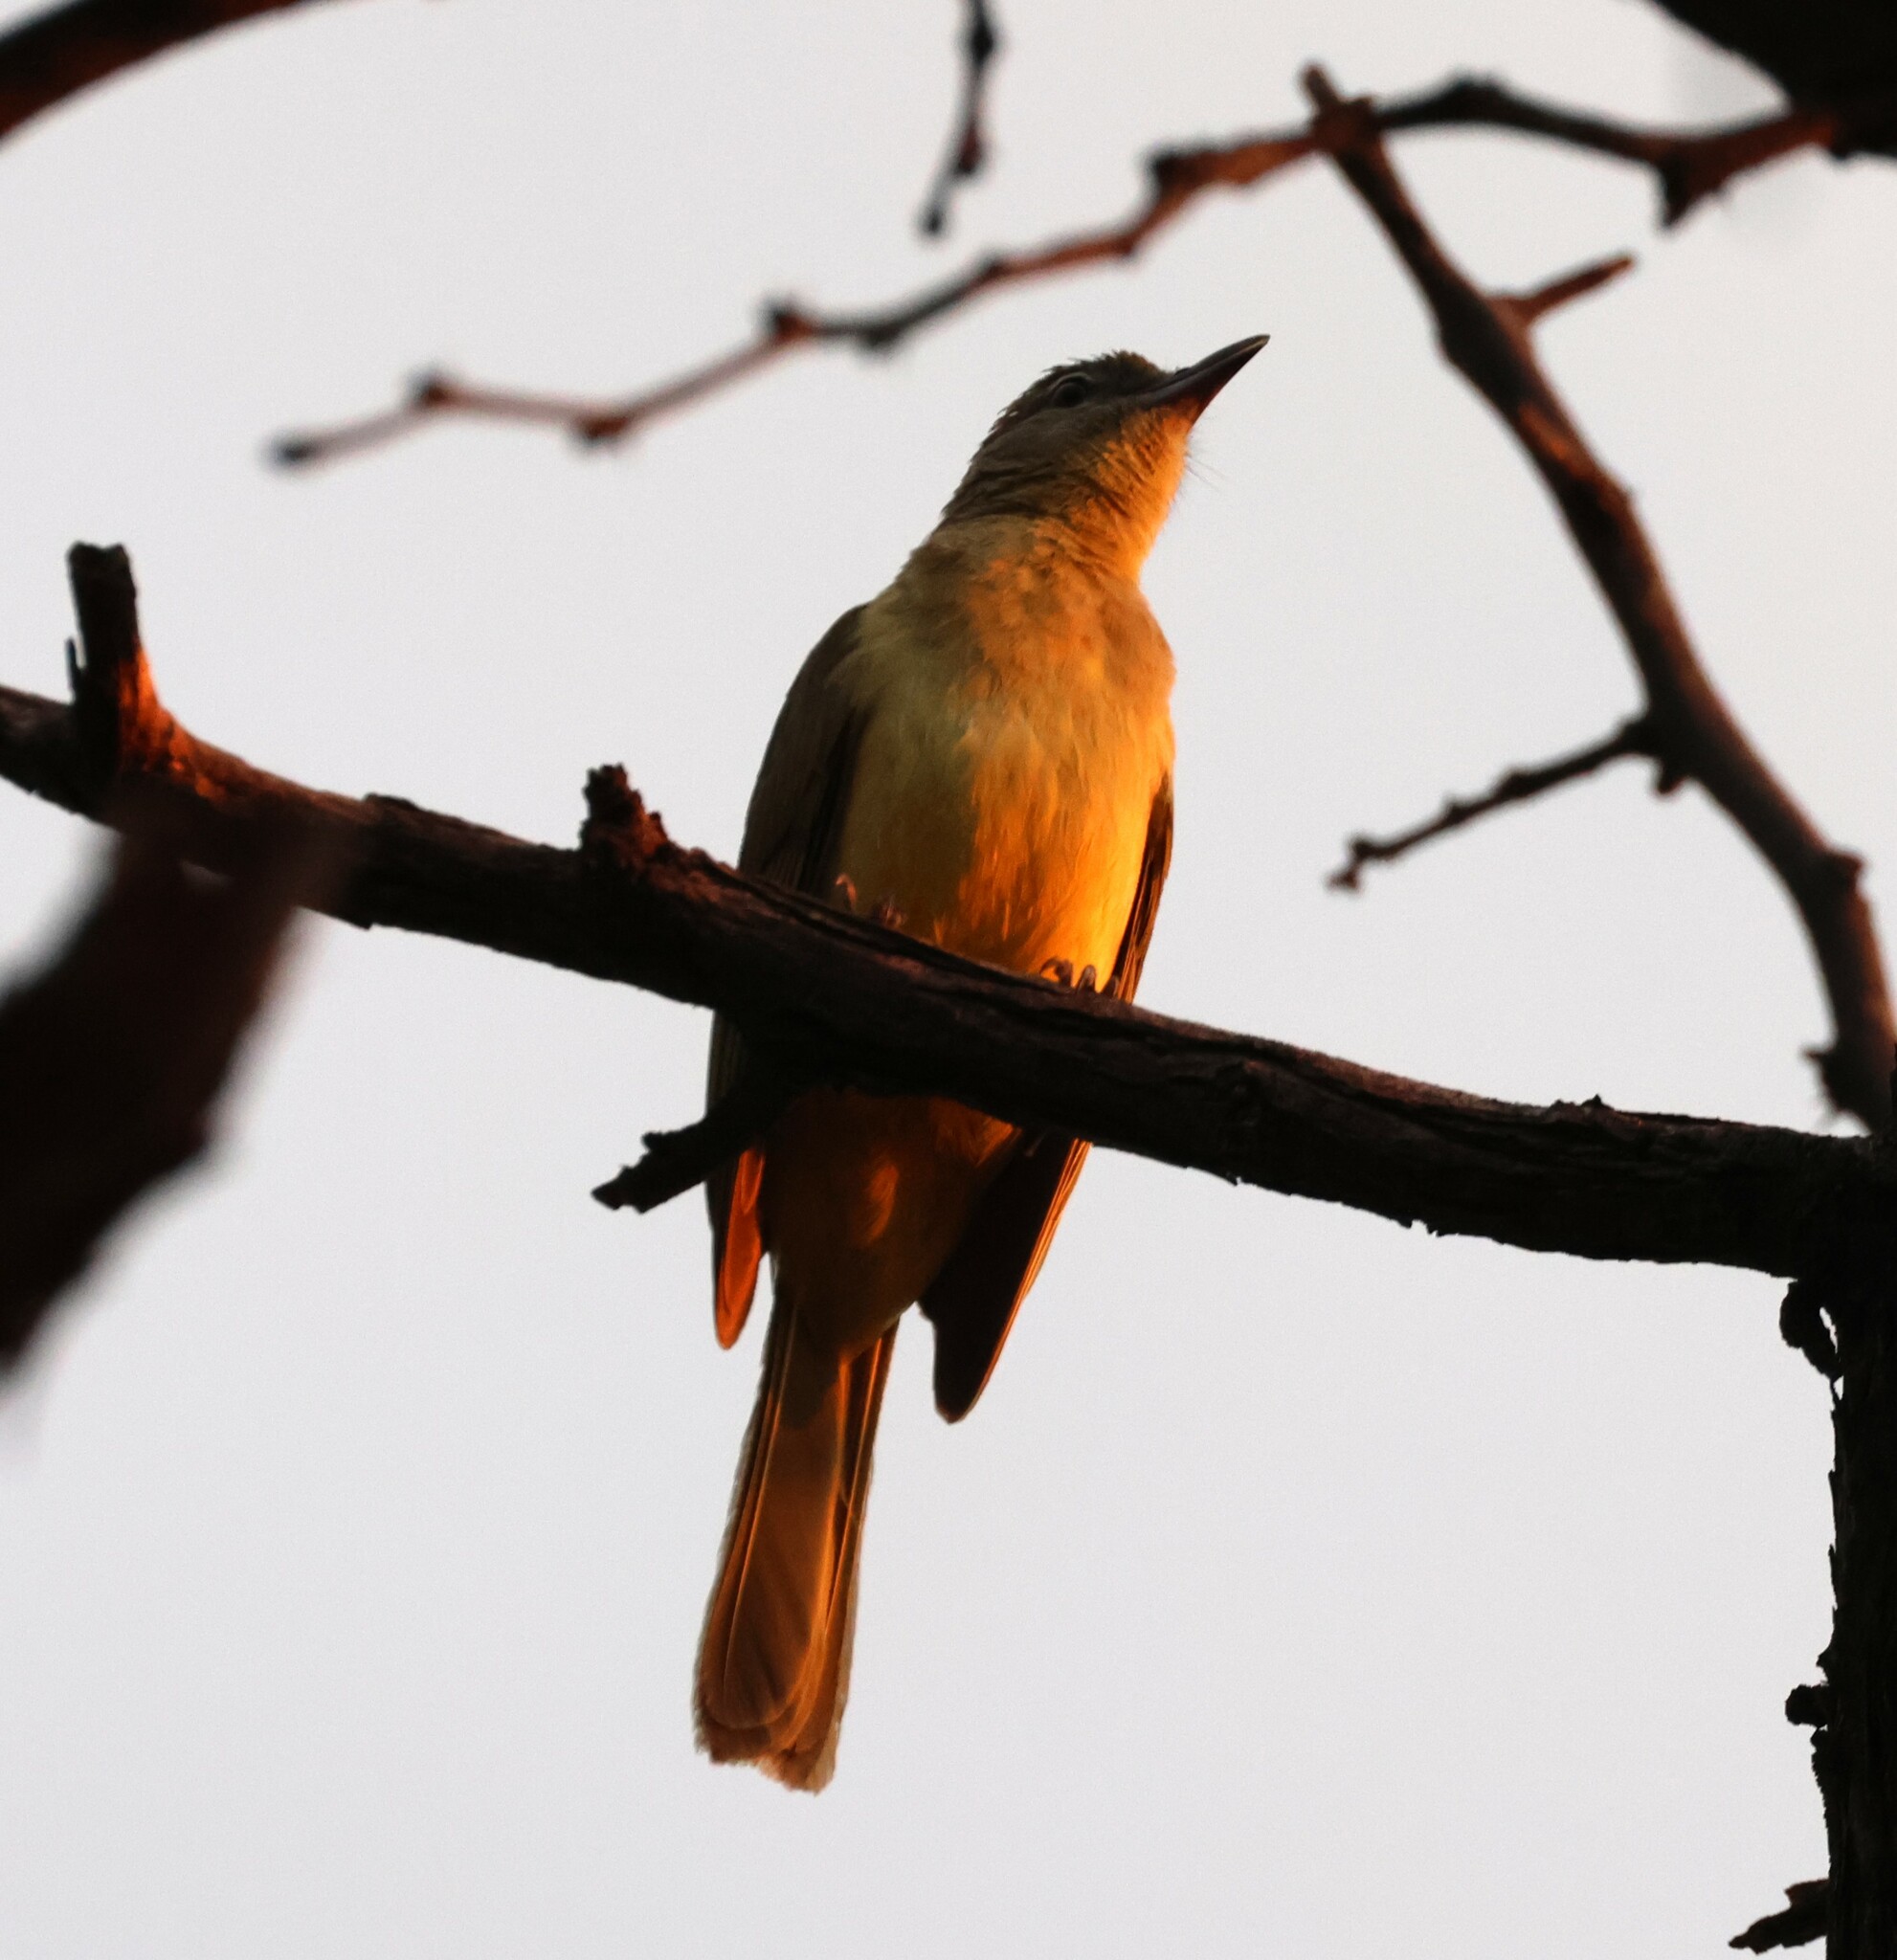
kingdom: Animalia
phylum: Chordata
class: Aves
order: Passeriformes
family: Pycnonotidae
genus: Chlorocichla
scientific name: Chlorocichla flaviventris
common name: Yellow-bellied greenbul
